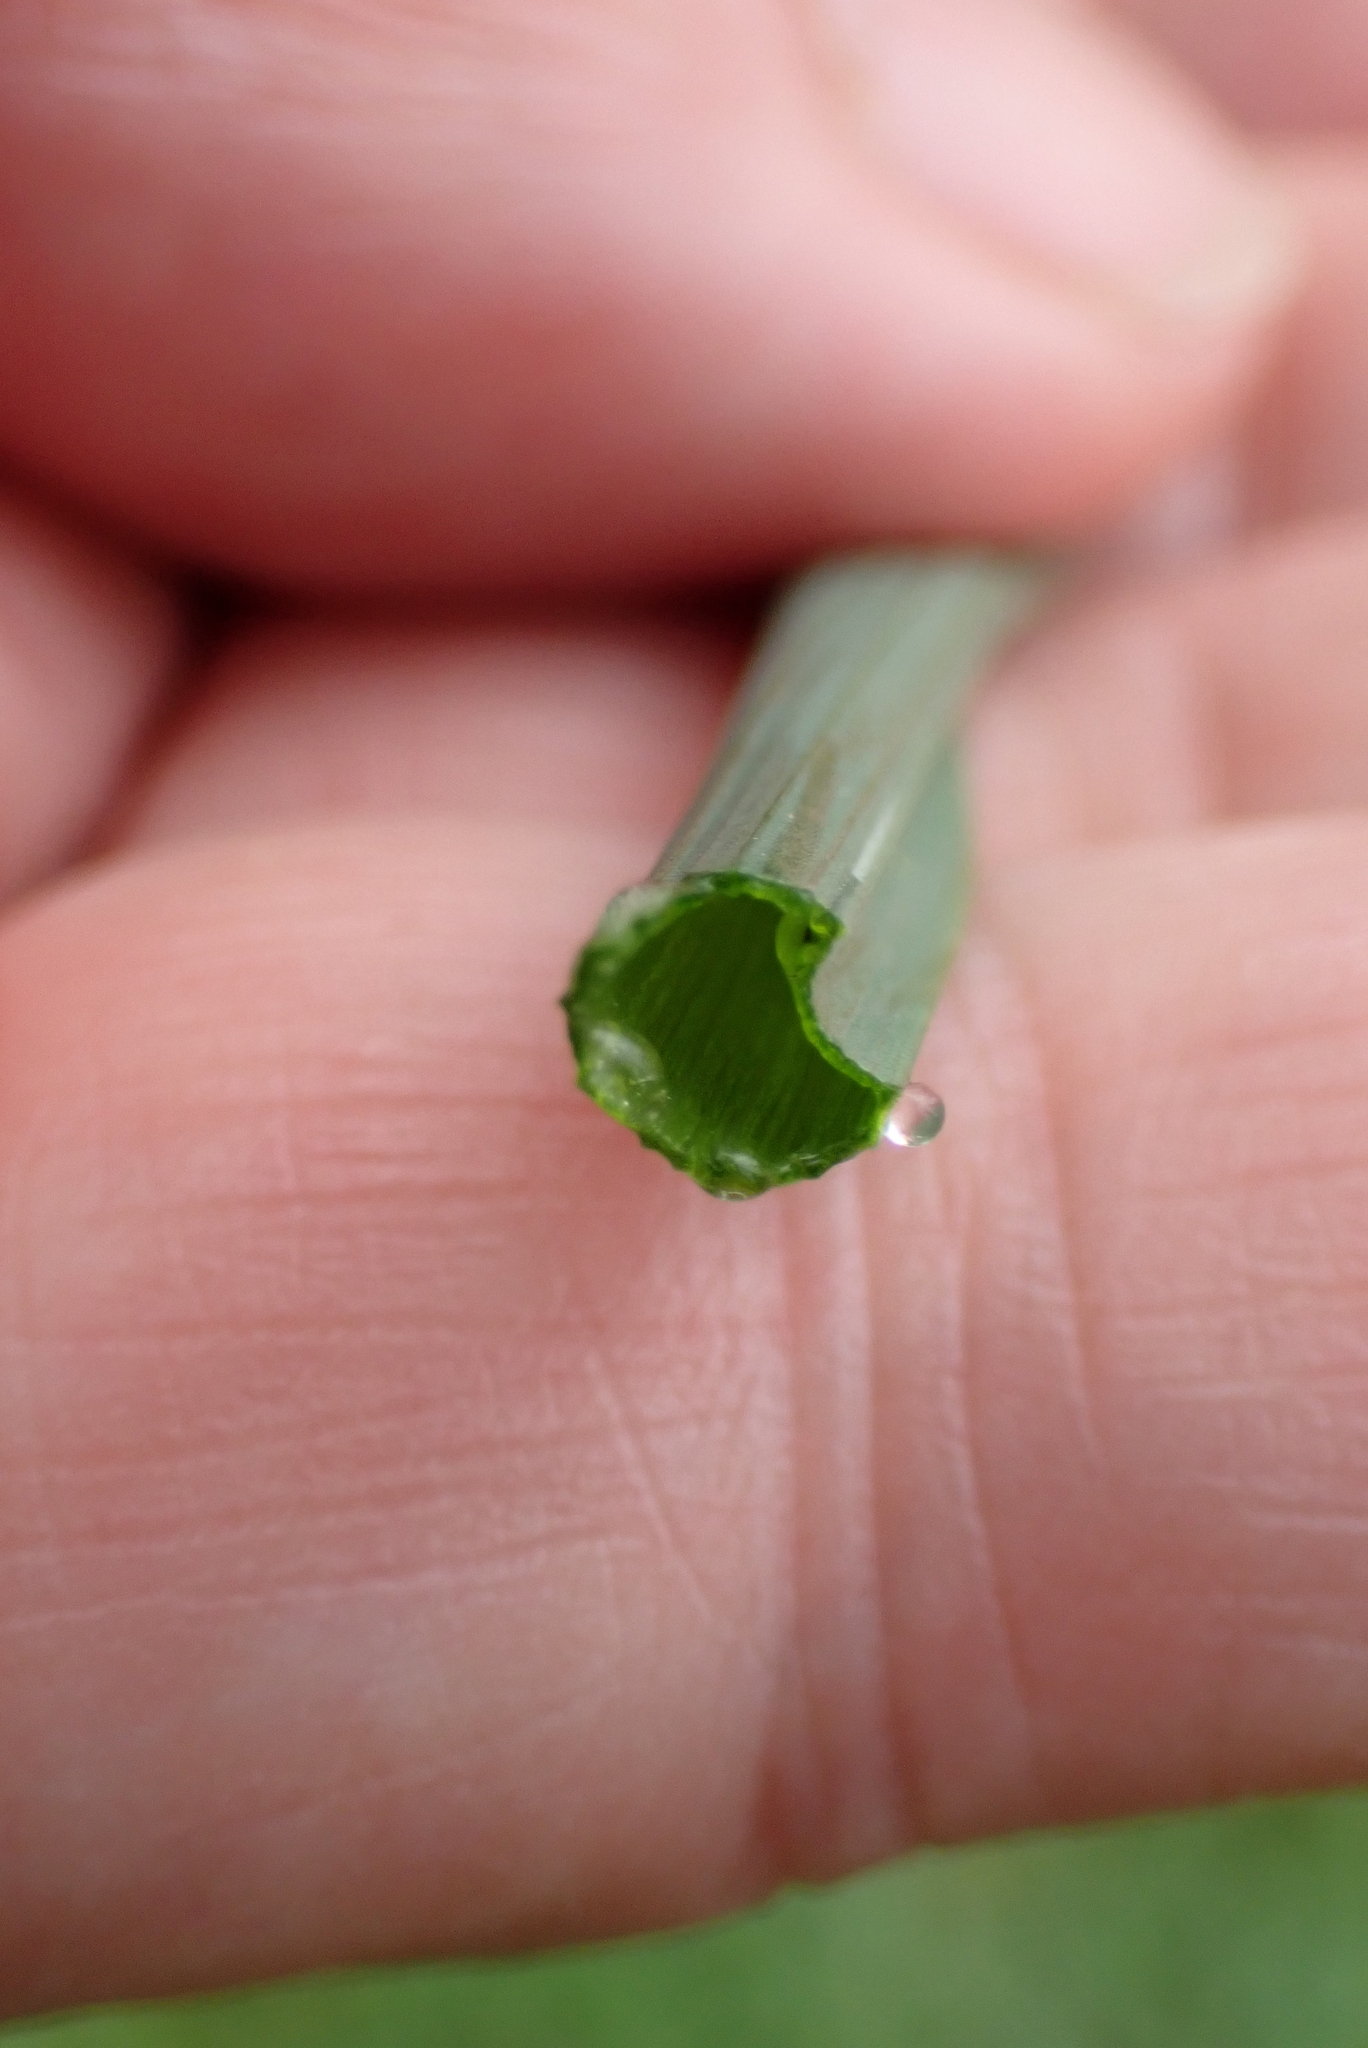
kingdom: Plantae
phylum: Tracheophyta
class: Liliopsida
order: Asparagales
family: Amaryllidaceae
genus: Allium
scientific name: Allium vineale
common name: Crow garlic
